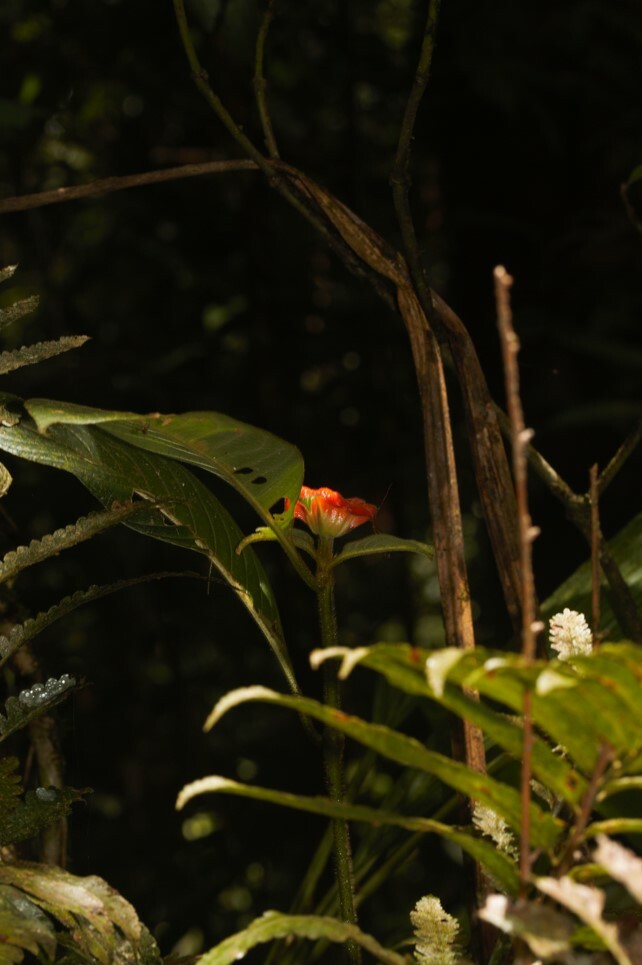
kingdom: Plantae
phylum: Tracheophyta
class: Magnoliopsida
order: Gentianales
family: Rubiaceae
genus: Palicourea
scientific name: Palicourea tomentosa
